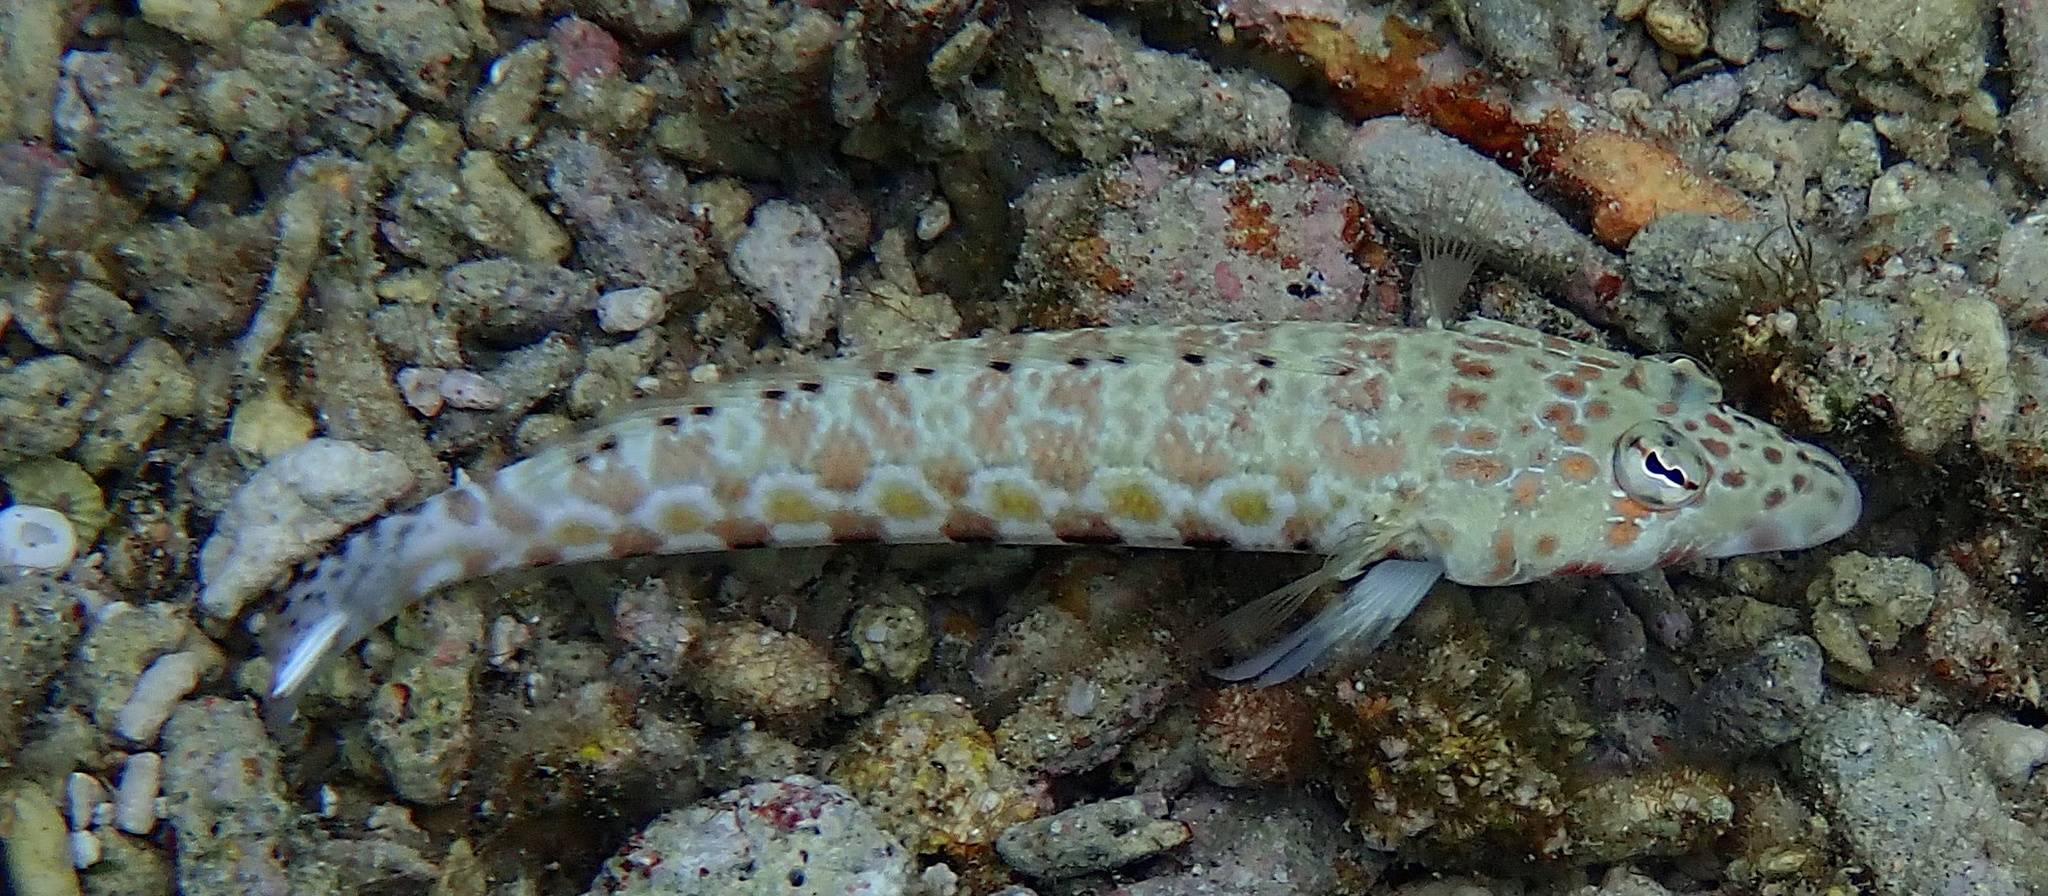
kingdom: Animalia
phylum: Chordata
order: Perciformes
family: Pinguipedidae
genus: Parapercis
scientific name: Parapercis millepunctata
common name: Black-dotted sandperch
